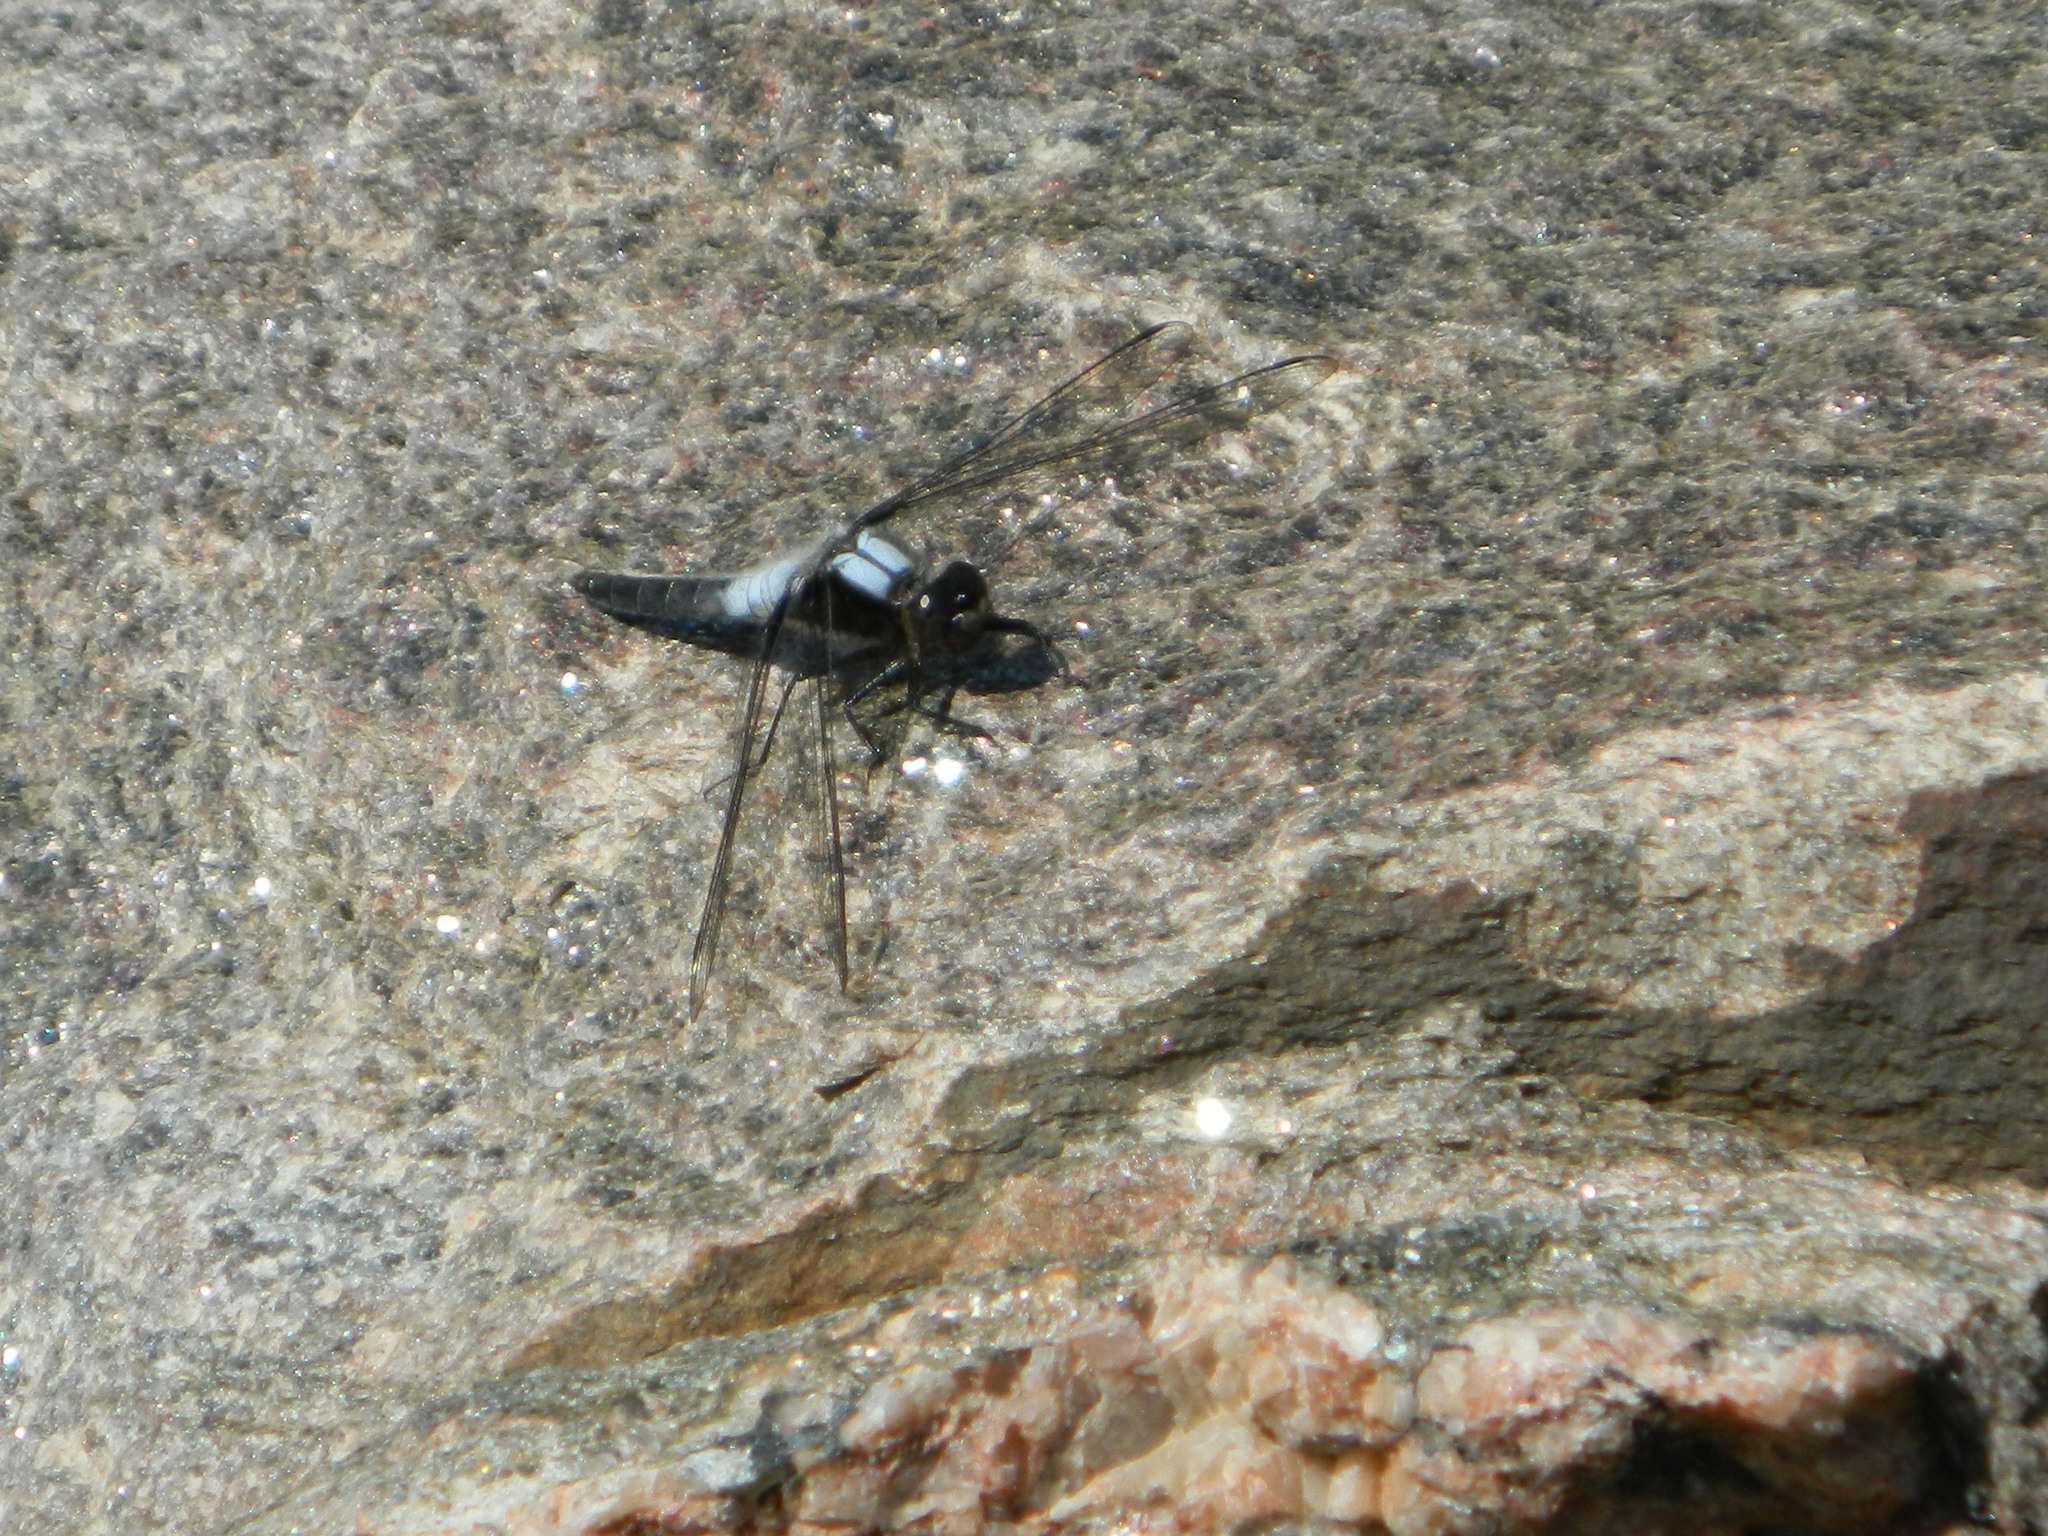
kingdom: Animalia
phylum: Arthropoda
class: Insecta
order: Odonata
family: Libellulidae
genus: Ladona
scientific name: Ladona julia
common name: Chalk-fronted corporal
